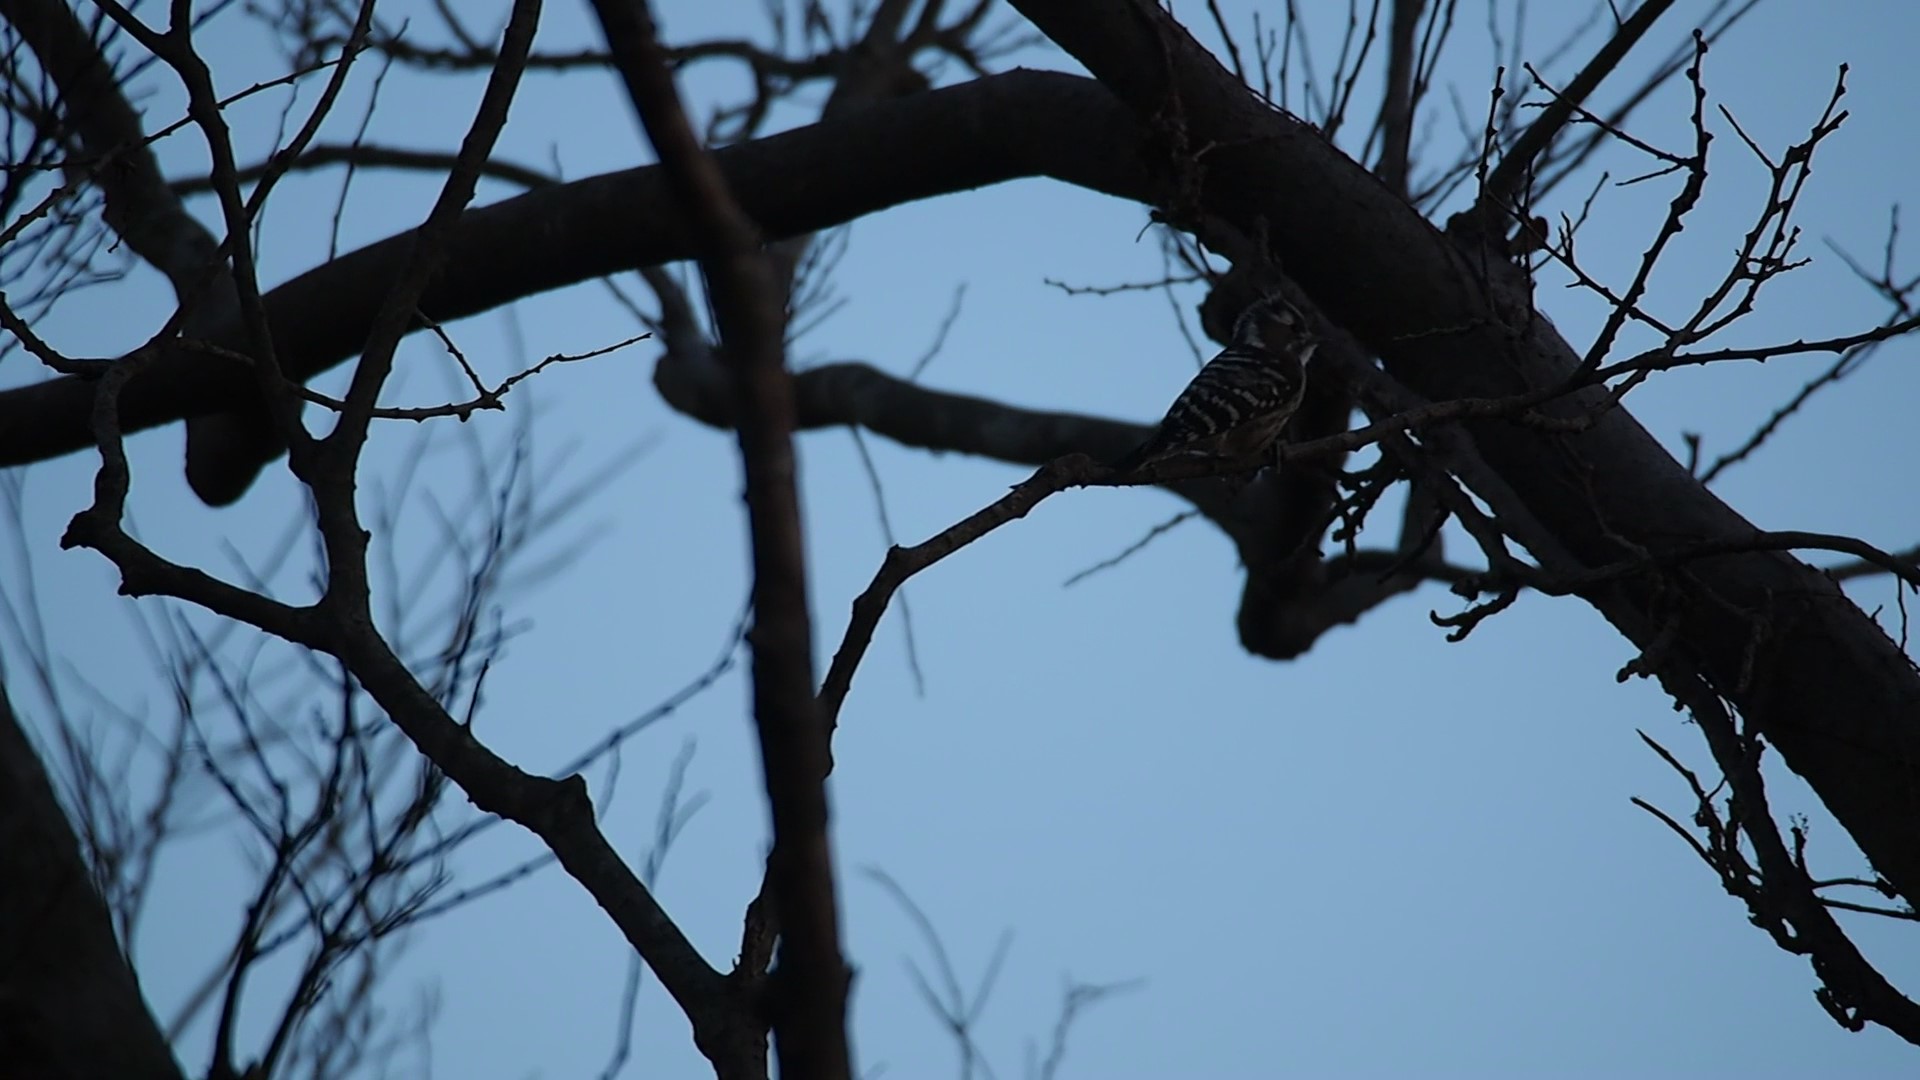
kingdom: Animalia
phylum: Chordata
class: Aves
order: Piciformes
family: Picidae
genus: Yungipicus
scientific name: Yungipicus kizuki
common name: Japanese pygmy woodpecker
